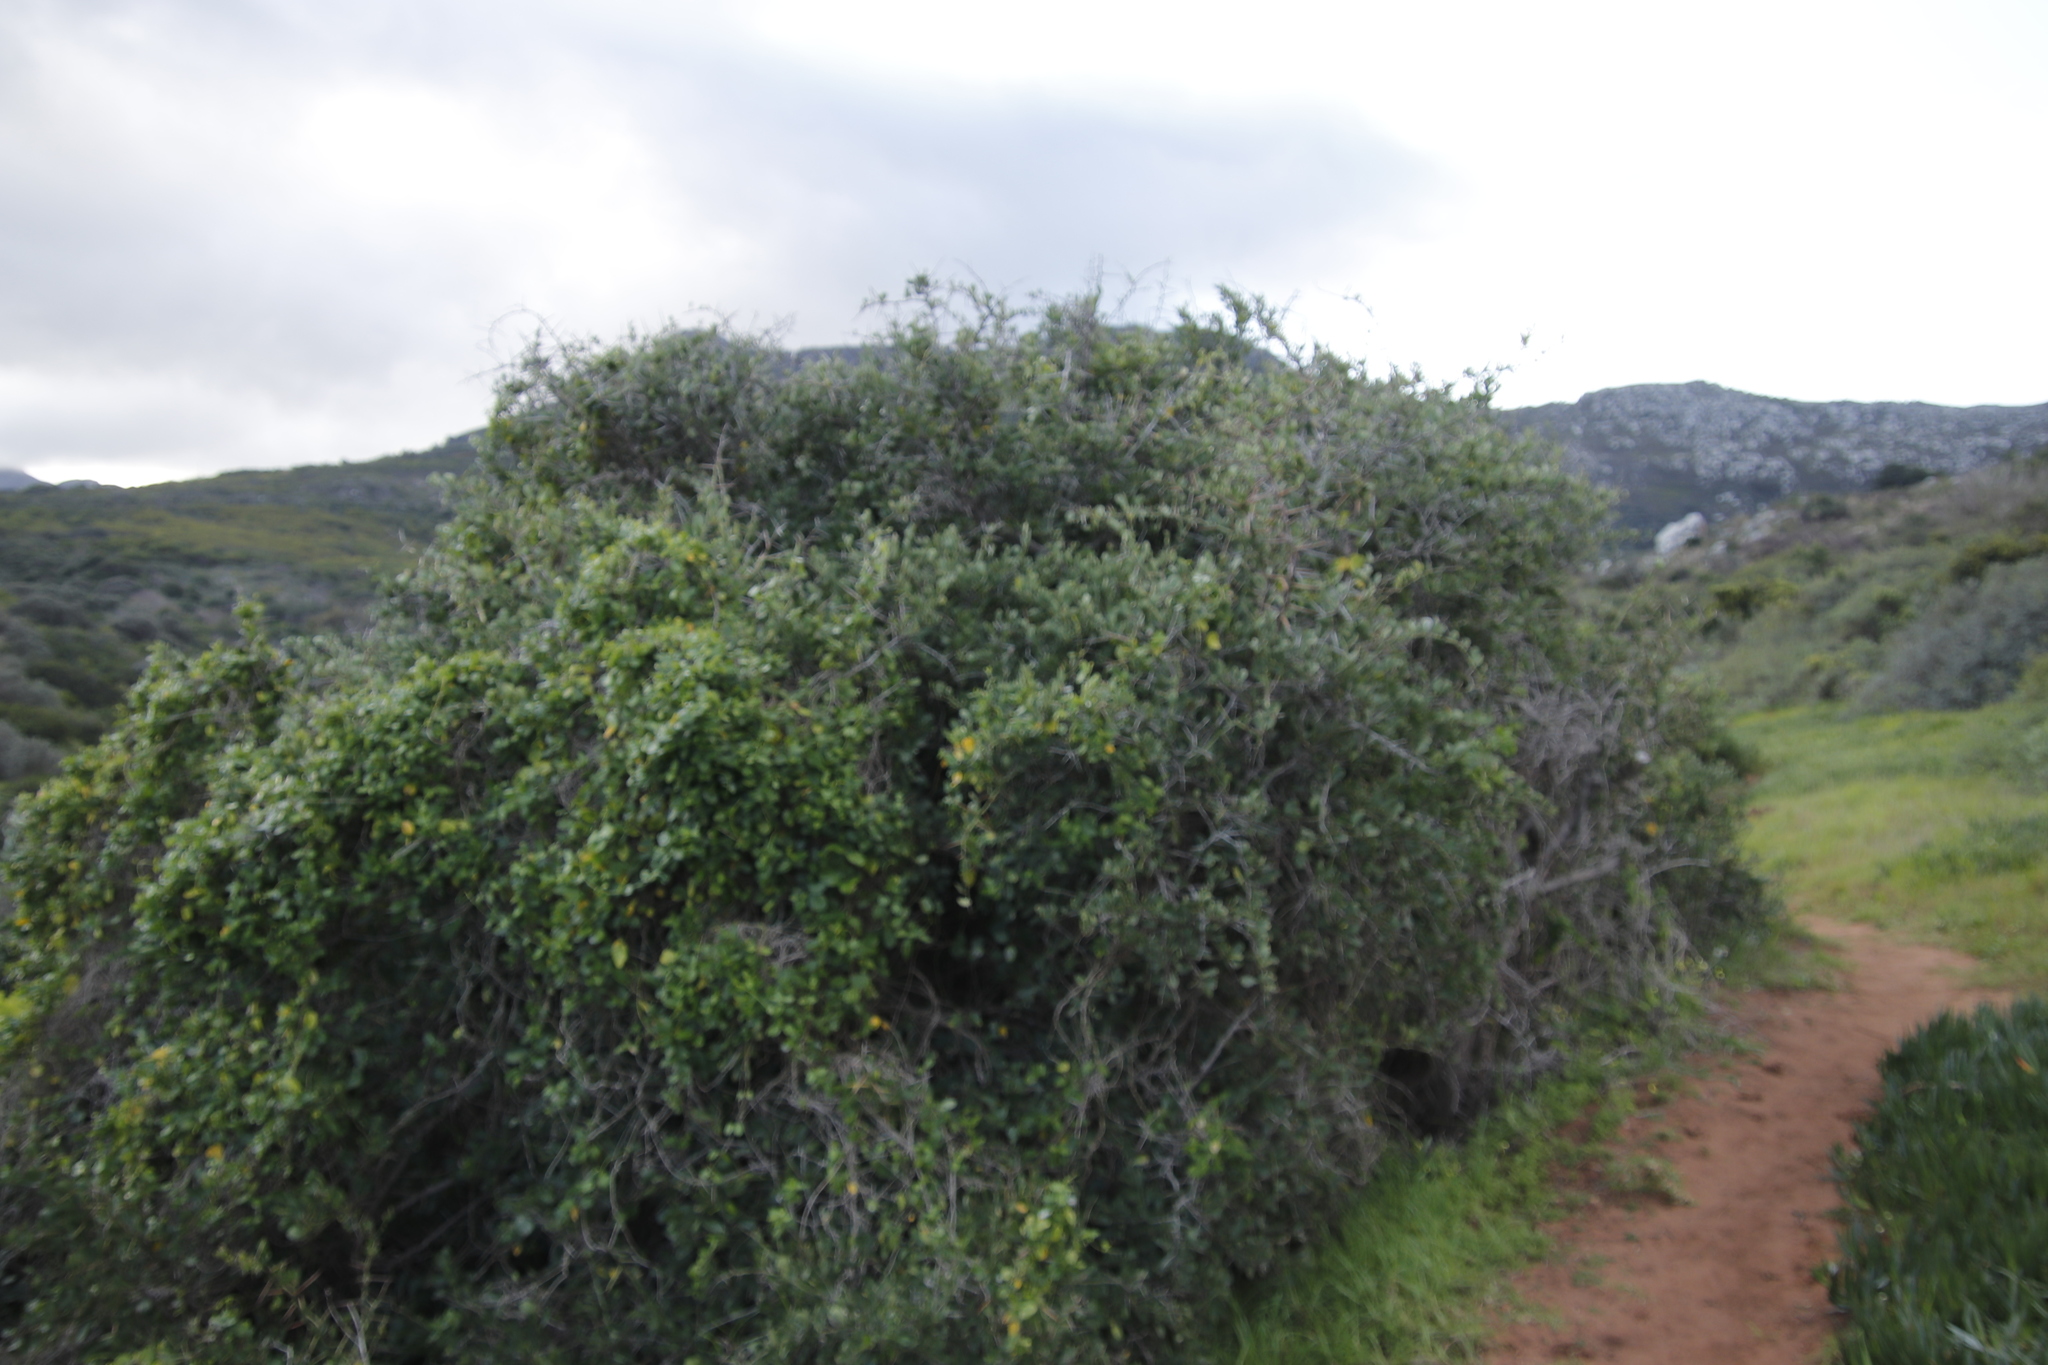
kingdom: Plantae
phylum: Tracheophyta
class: Magnoliopsida
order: Celastrales
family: Celastraceae
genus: Gymnosporia
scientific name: Gymnosporia buxifolia
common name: Common spike-thorn
